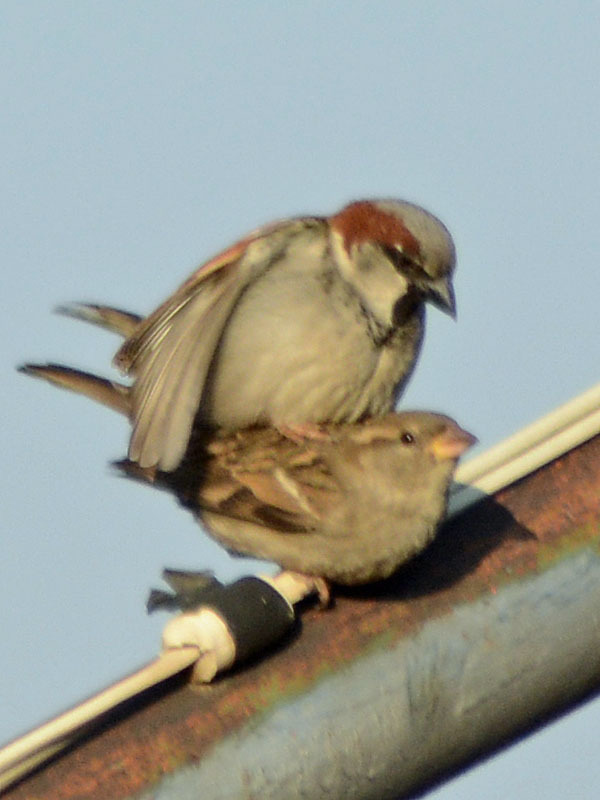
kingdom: Animalia
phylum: Chordata
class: Aves
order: Passeriformes
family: Passeridae
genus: Passer
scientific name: Passer domesticus
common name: House sparrow
